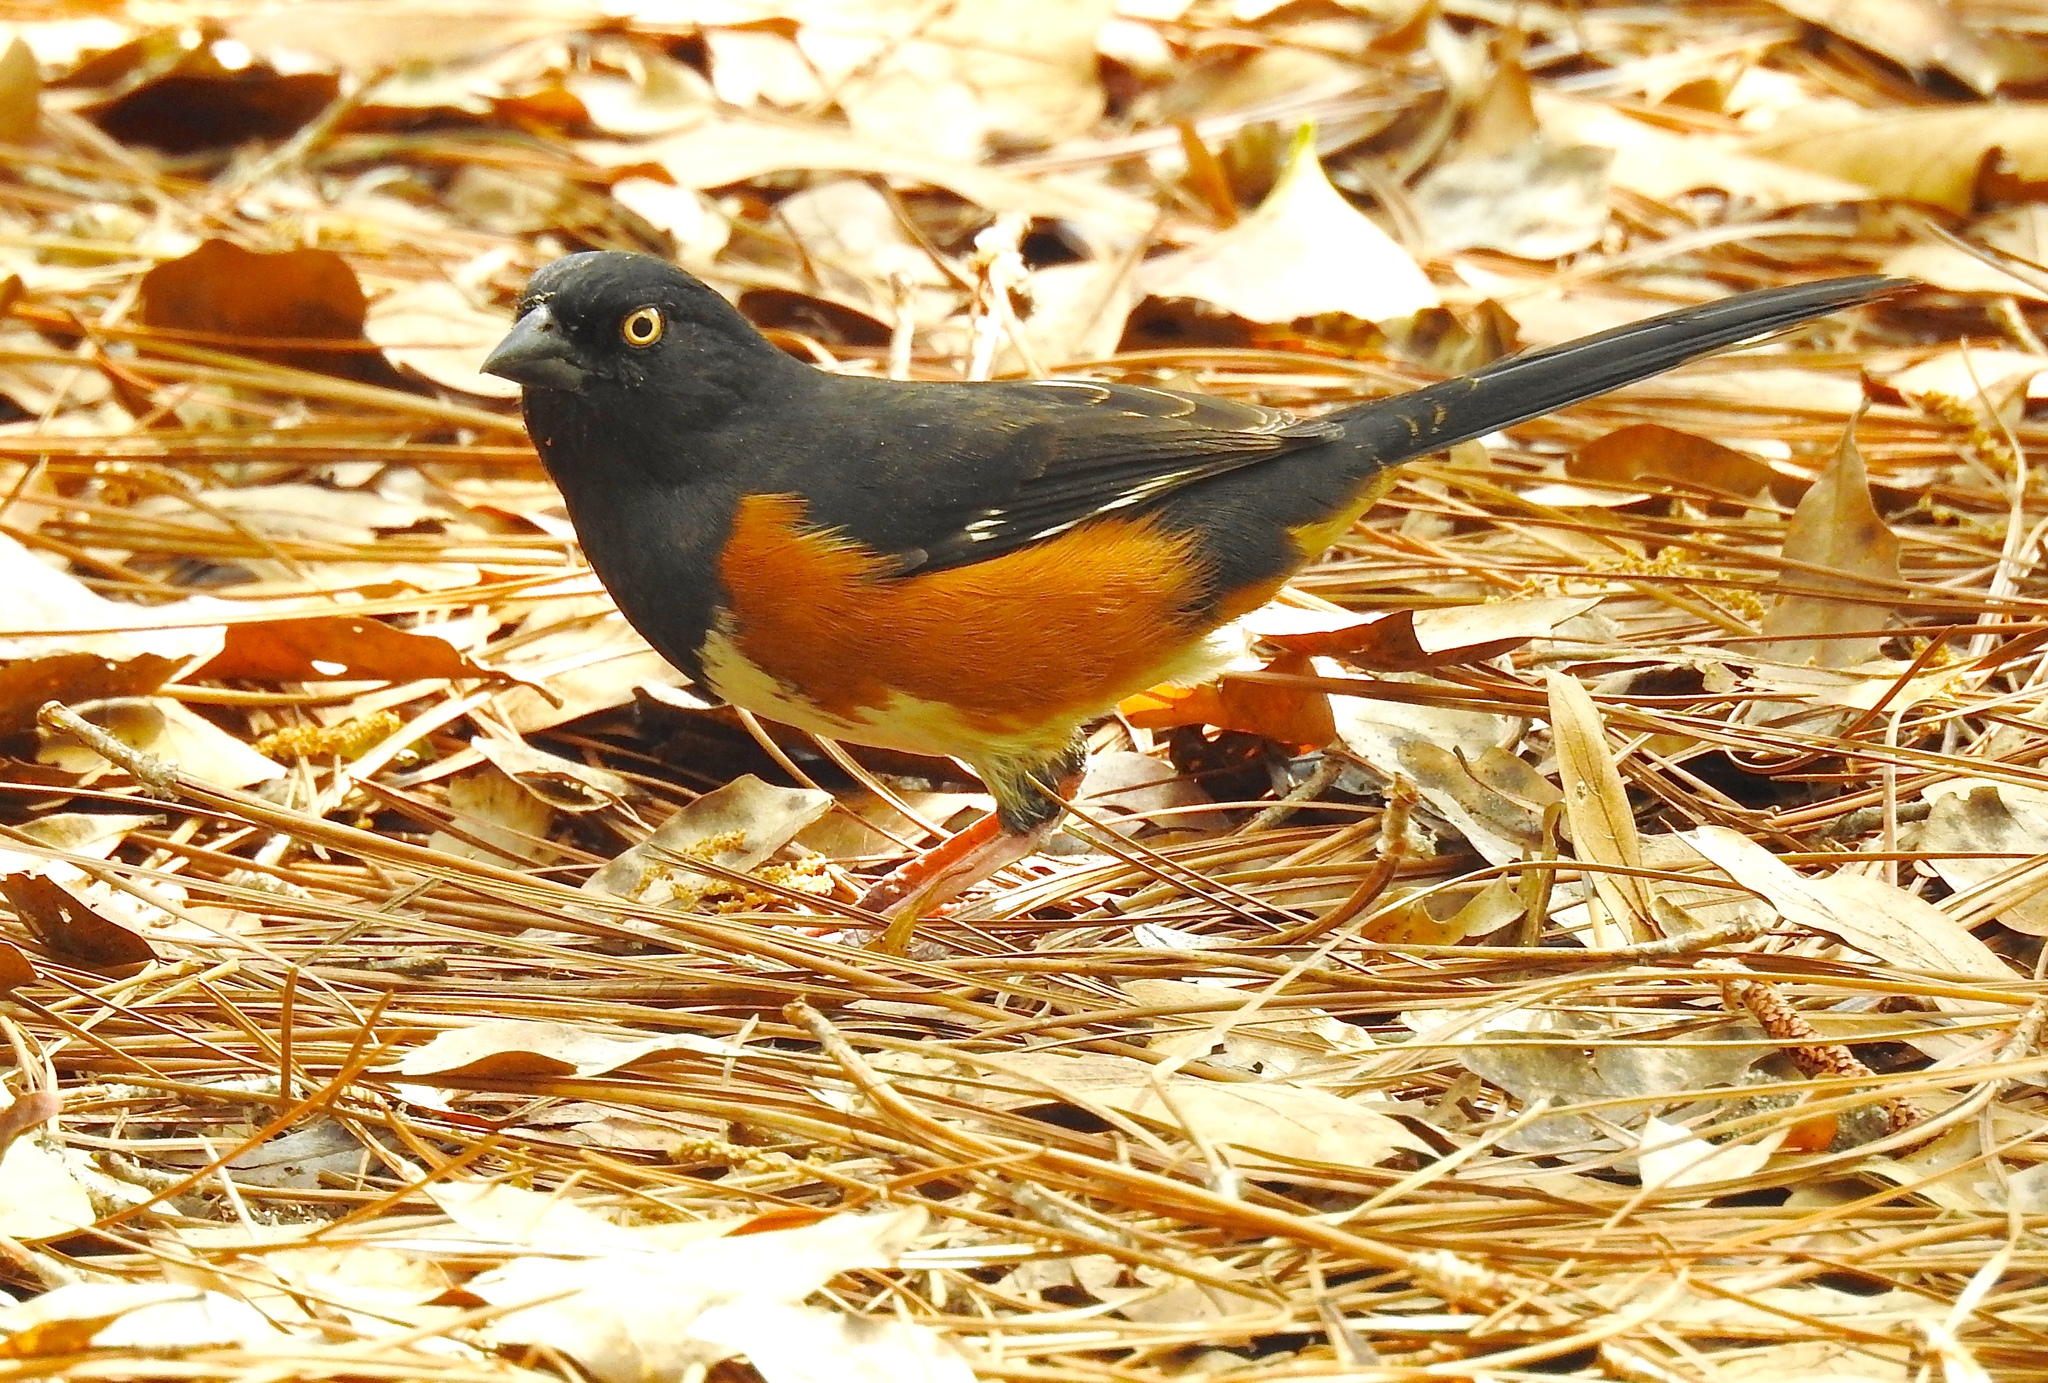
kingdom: Animalia
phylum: Chordata
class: Aves
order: Passeriformes
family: Passerellidae
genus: Pipilo
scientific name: Pipilo erythrophthalmus
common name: Eastern towhee
